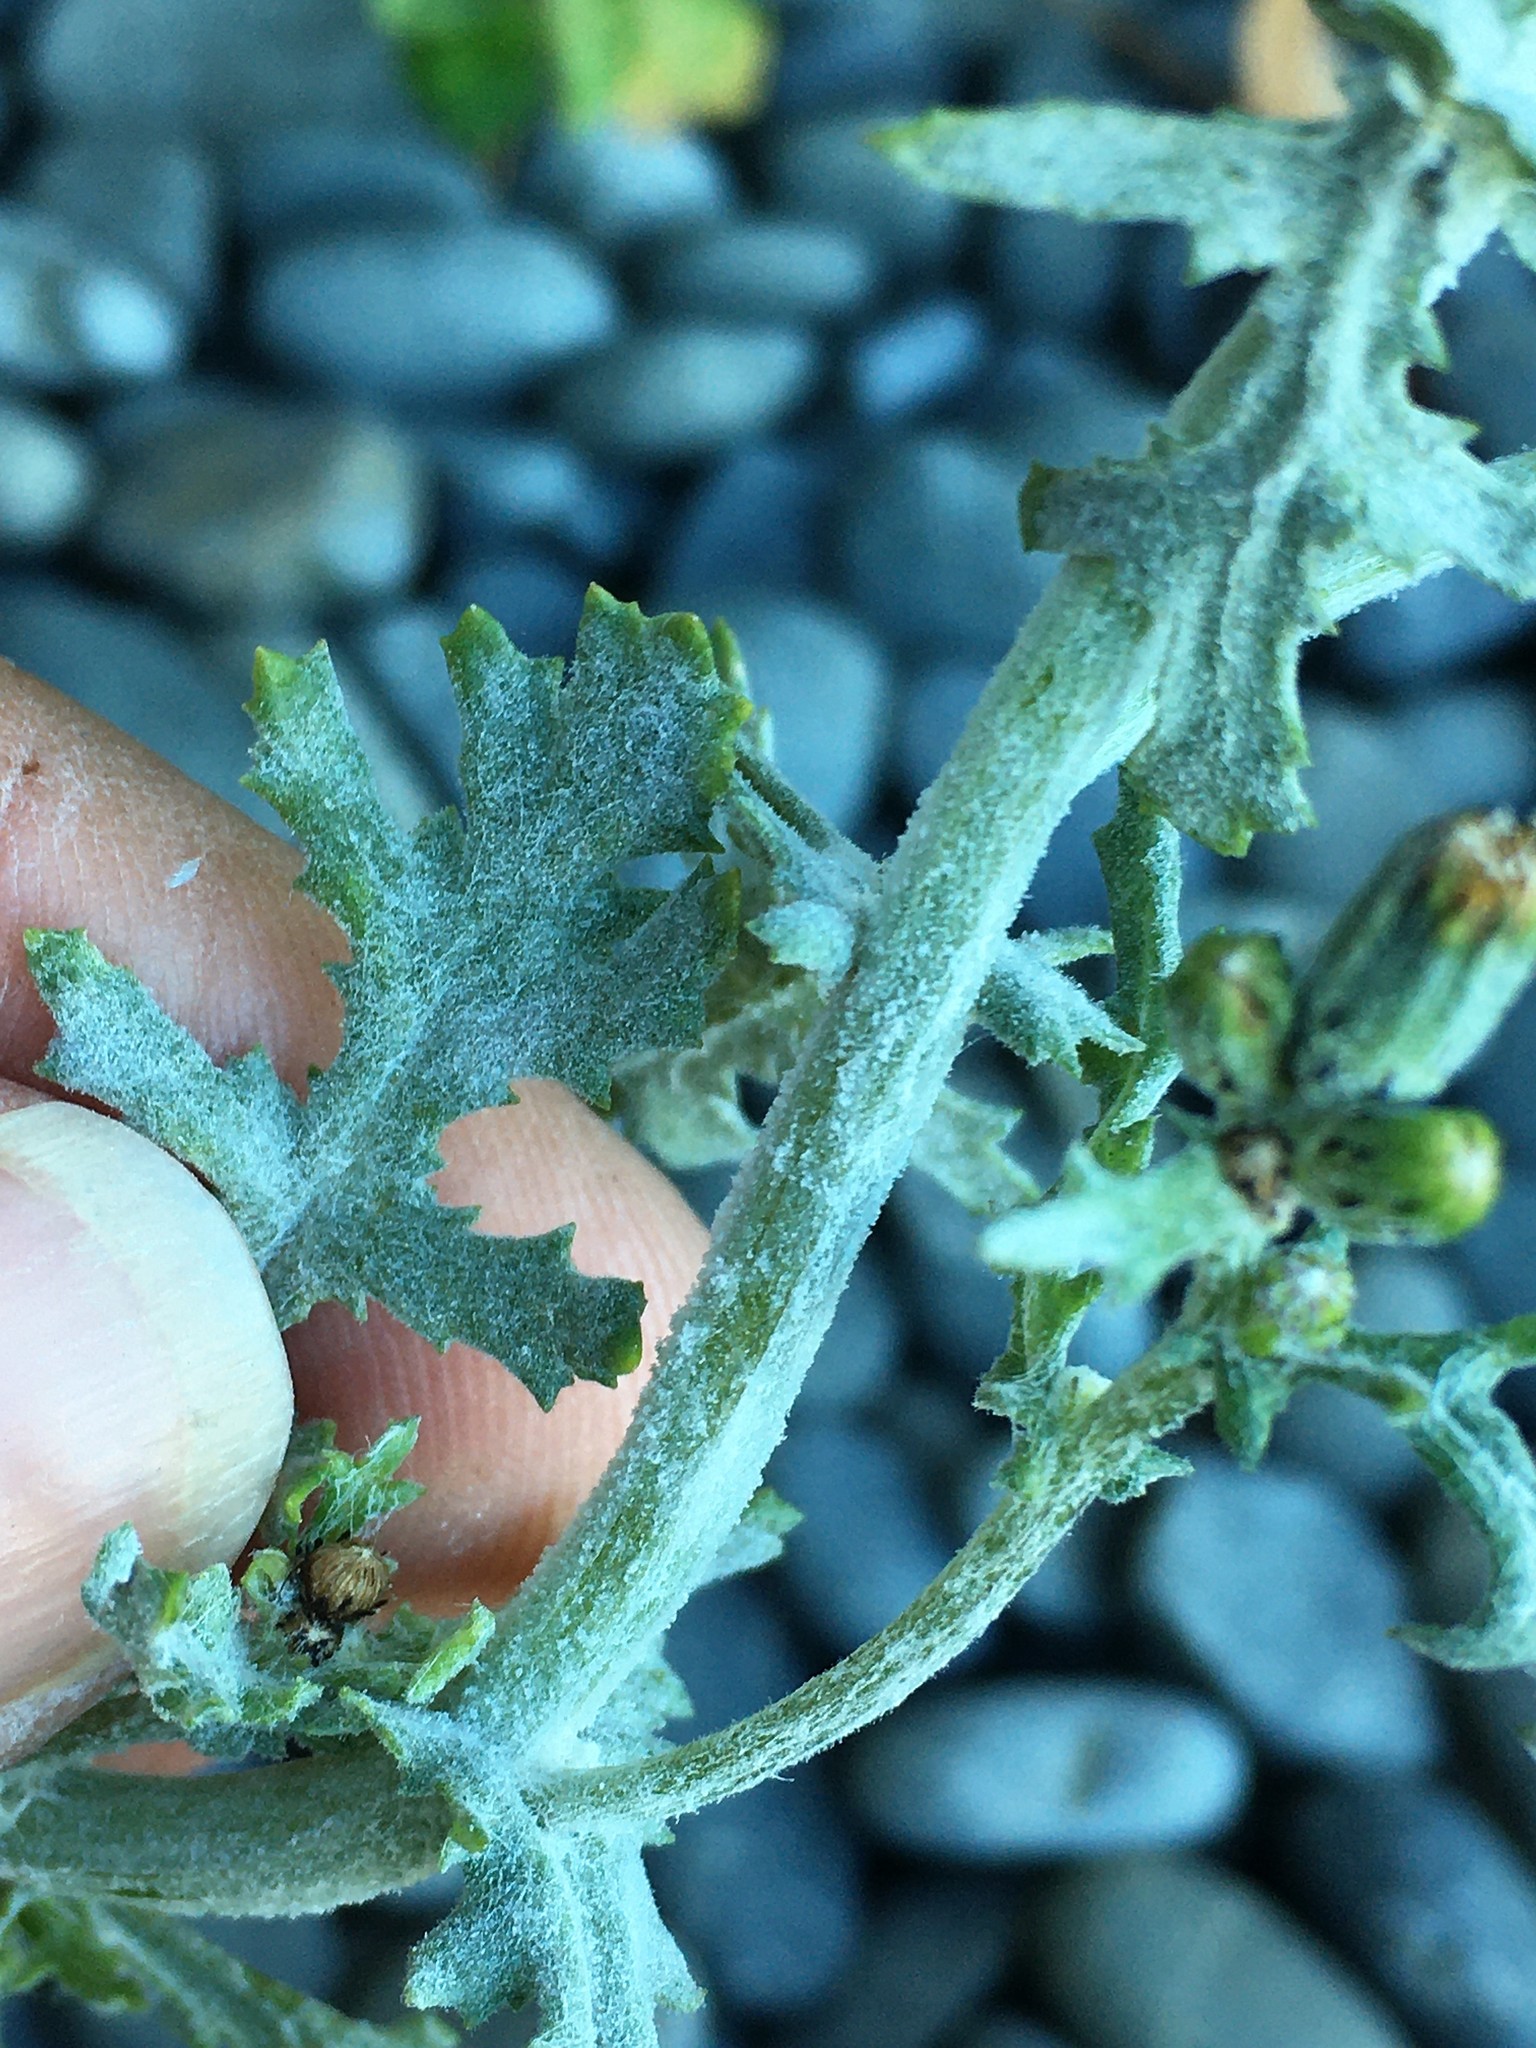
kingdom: Fungi
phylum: Ascomycota
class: Leotiomycetes
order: Helotiales
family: Erysiphaceae
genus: Golovinomyces
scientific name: Golovinomyces fischeri
